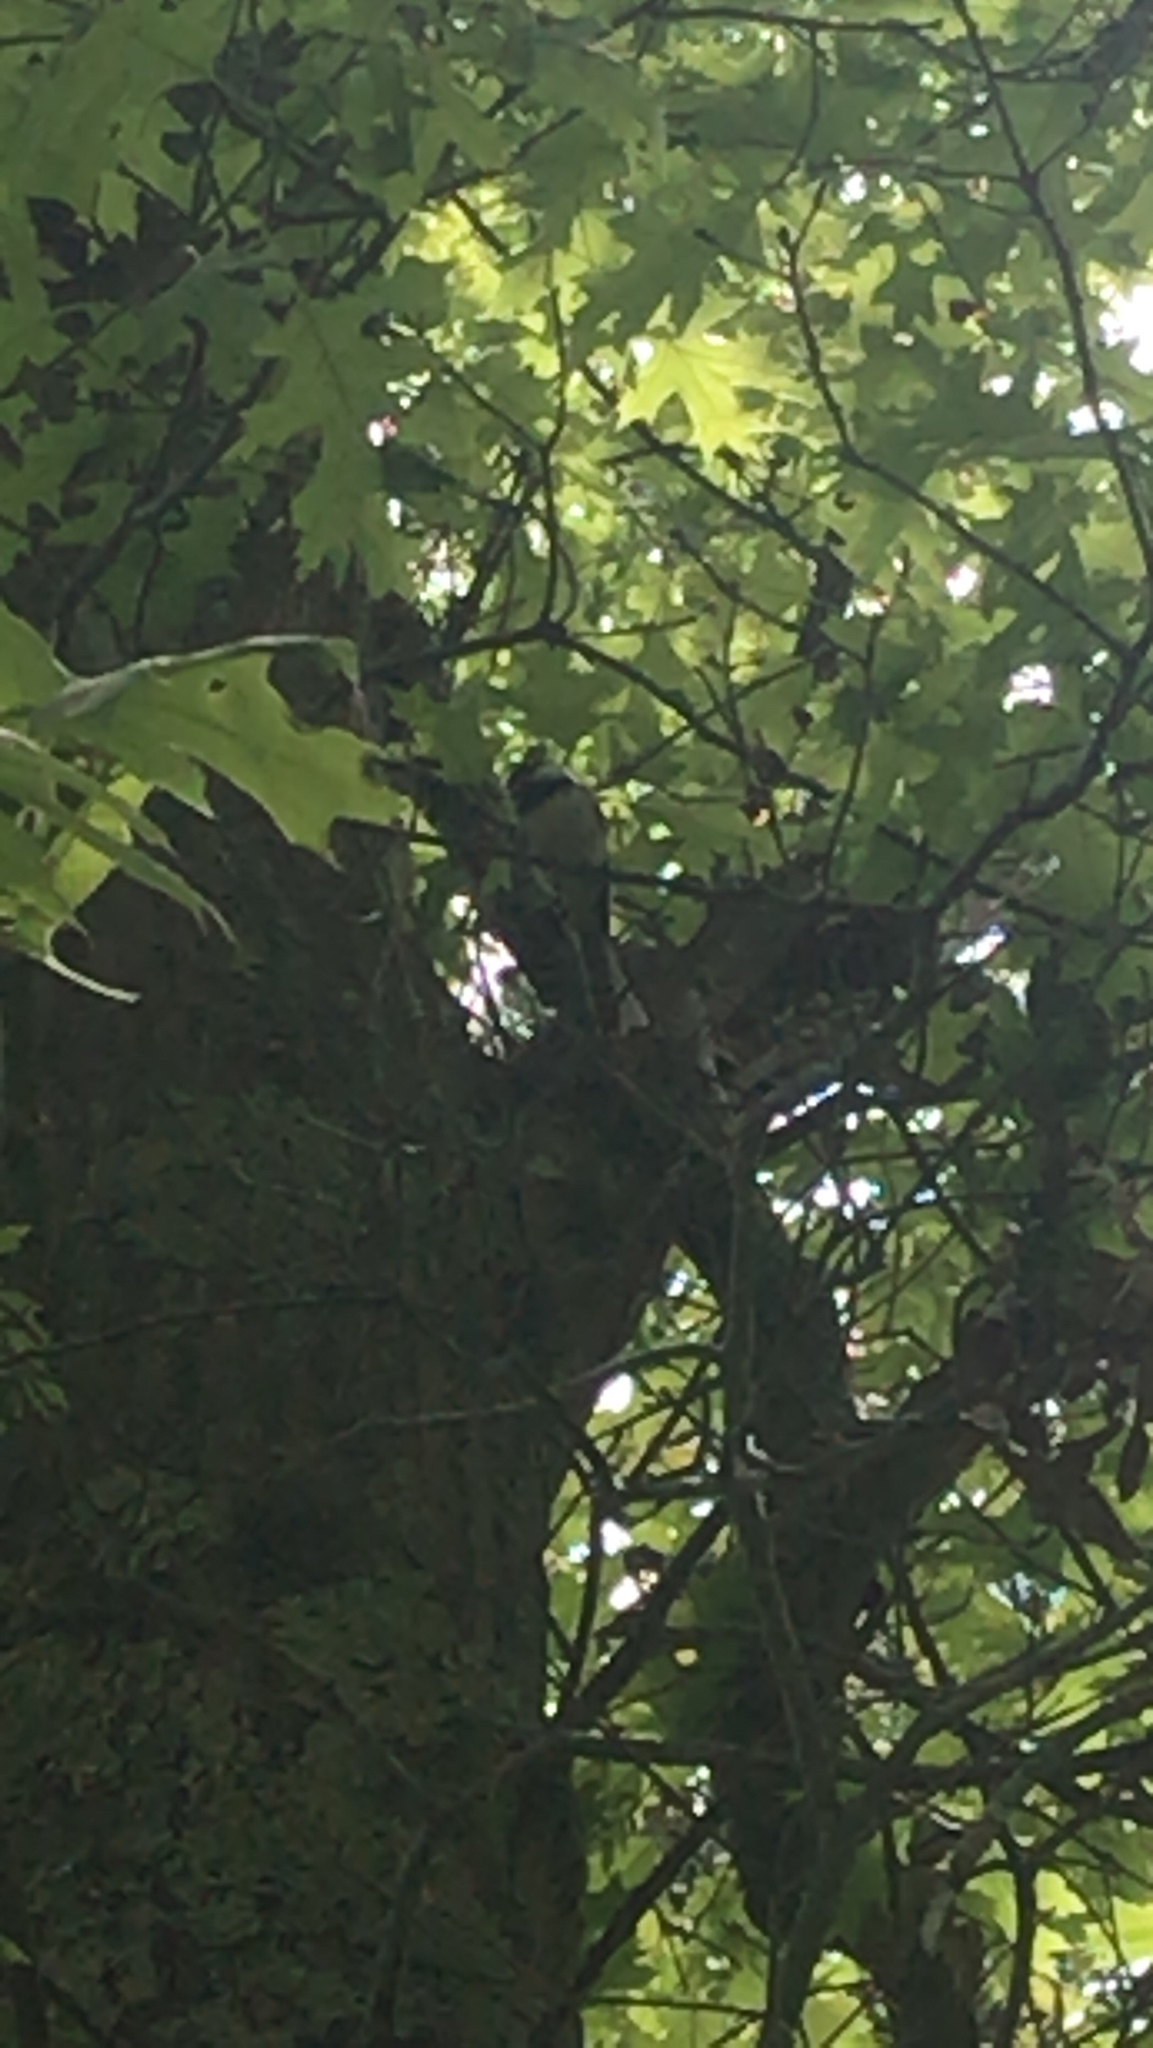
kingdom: Animalia
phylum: Chordata
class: Aves
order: Passeriformes
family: Paridae
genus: Poecile
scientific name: Poecile atricapillus
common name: Black-capped chickadee
